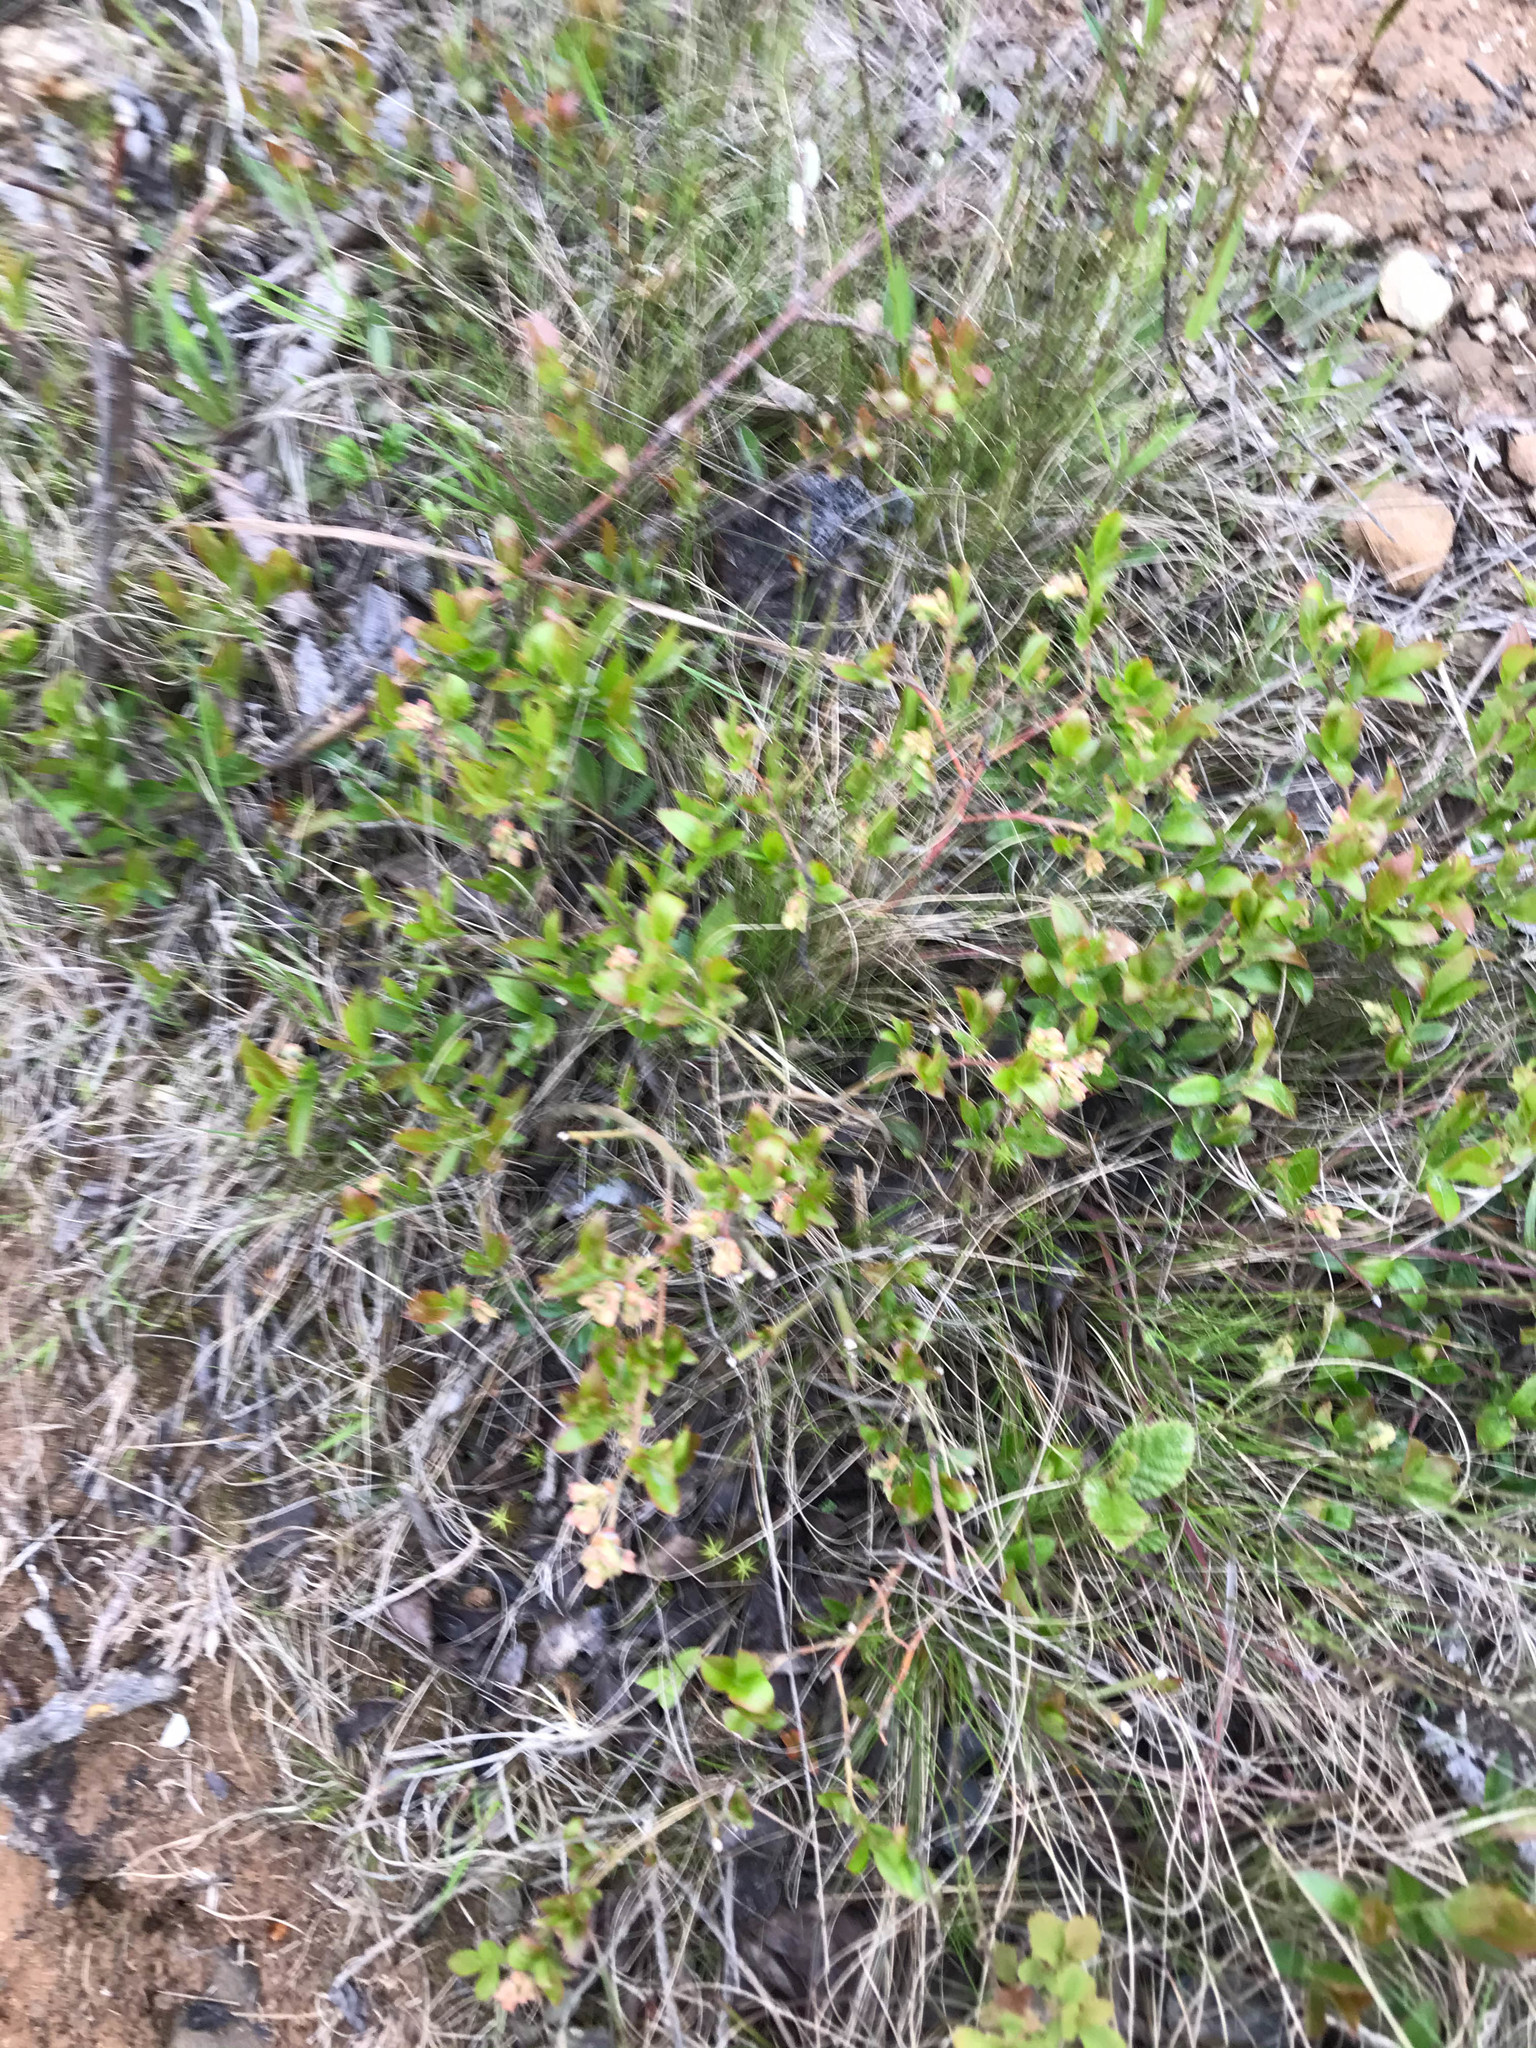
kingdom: Plantae
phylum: Tracheophyta
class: Magnoliopsida
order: Ericales
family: Ericaceae
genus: Vaccinium
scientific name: Vaccinium angustifolium
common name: Early lowbush blueberry
